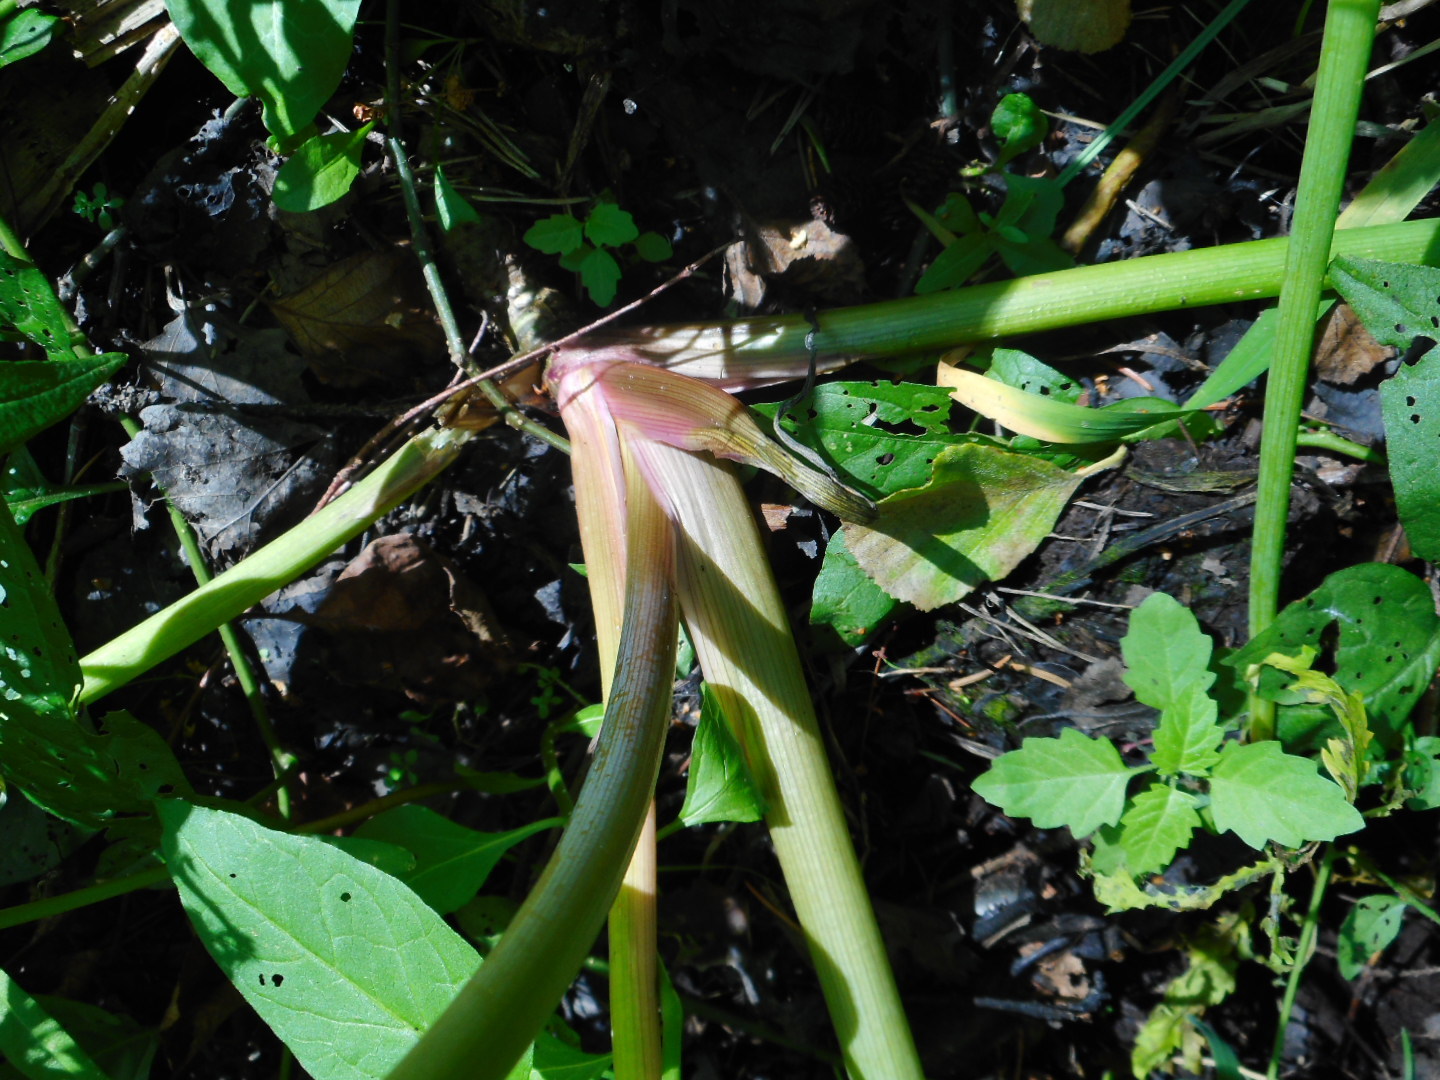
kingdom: Plantae
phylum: Tracheophyta
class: Magnoliopsida
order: Apiales
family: Apiaceae
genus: Cicuta
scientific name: Cicuta virosa
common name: Cowbane
